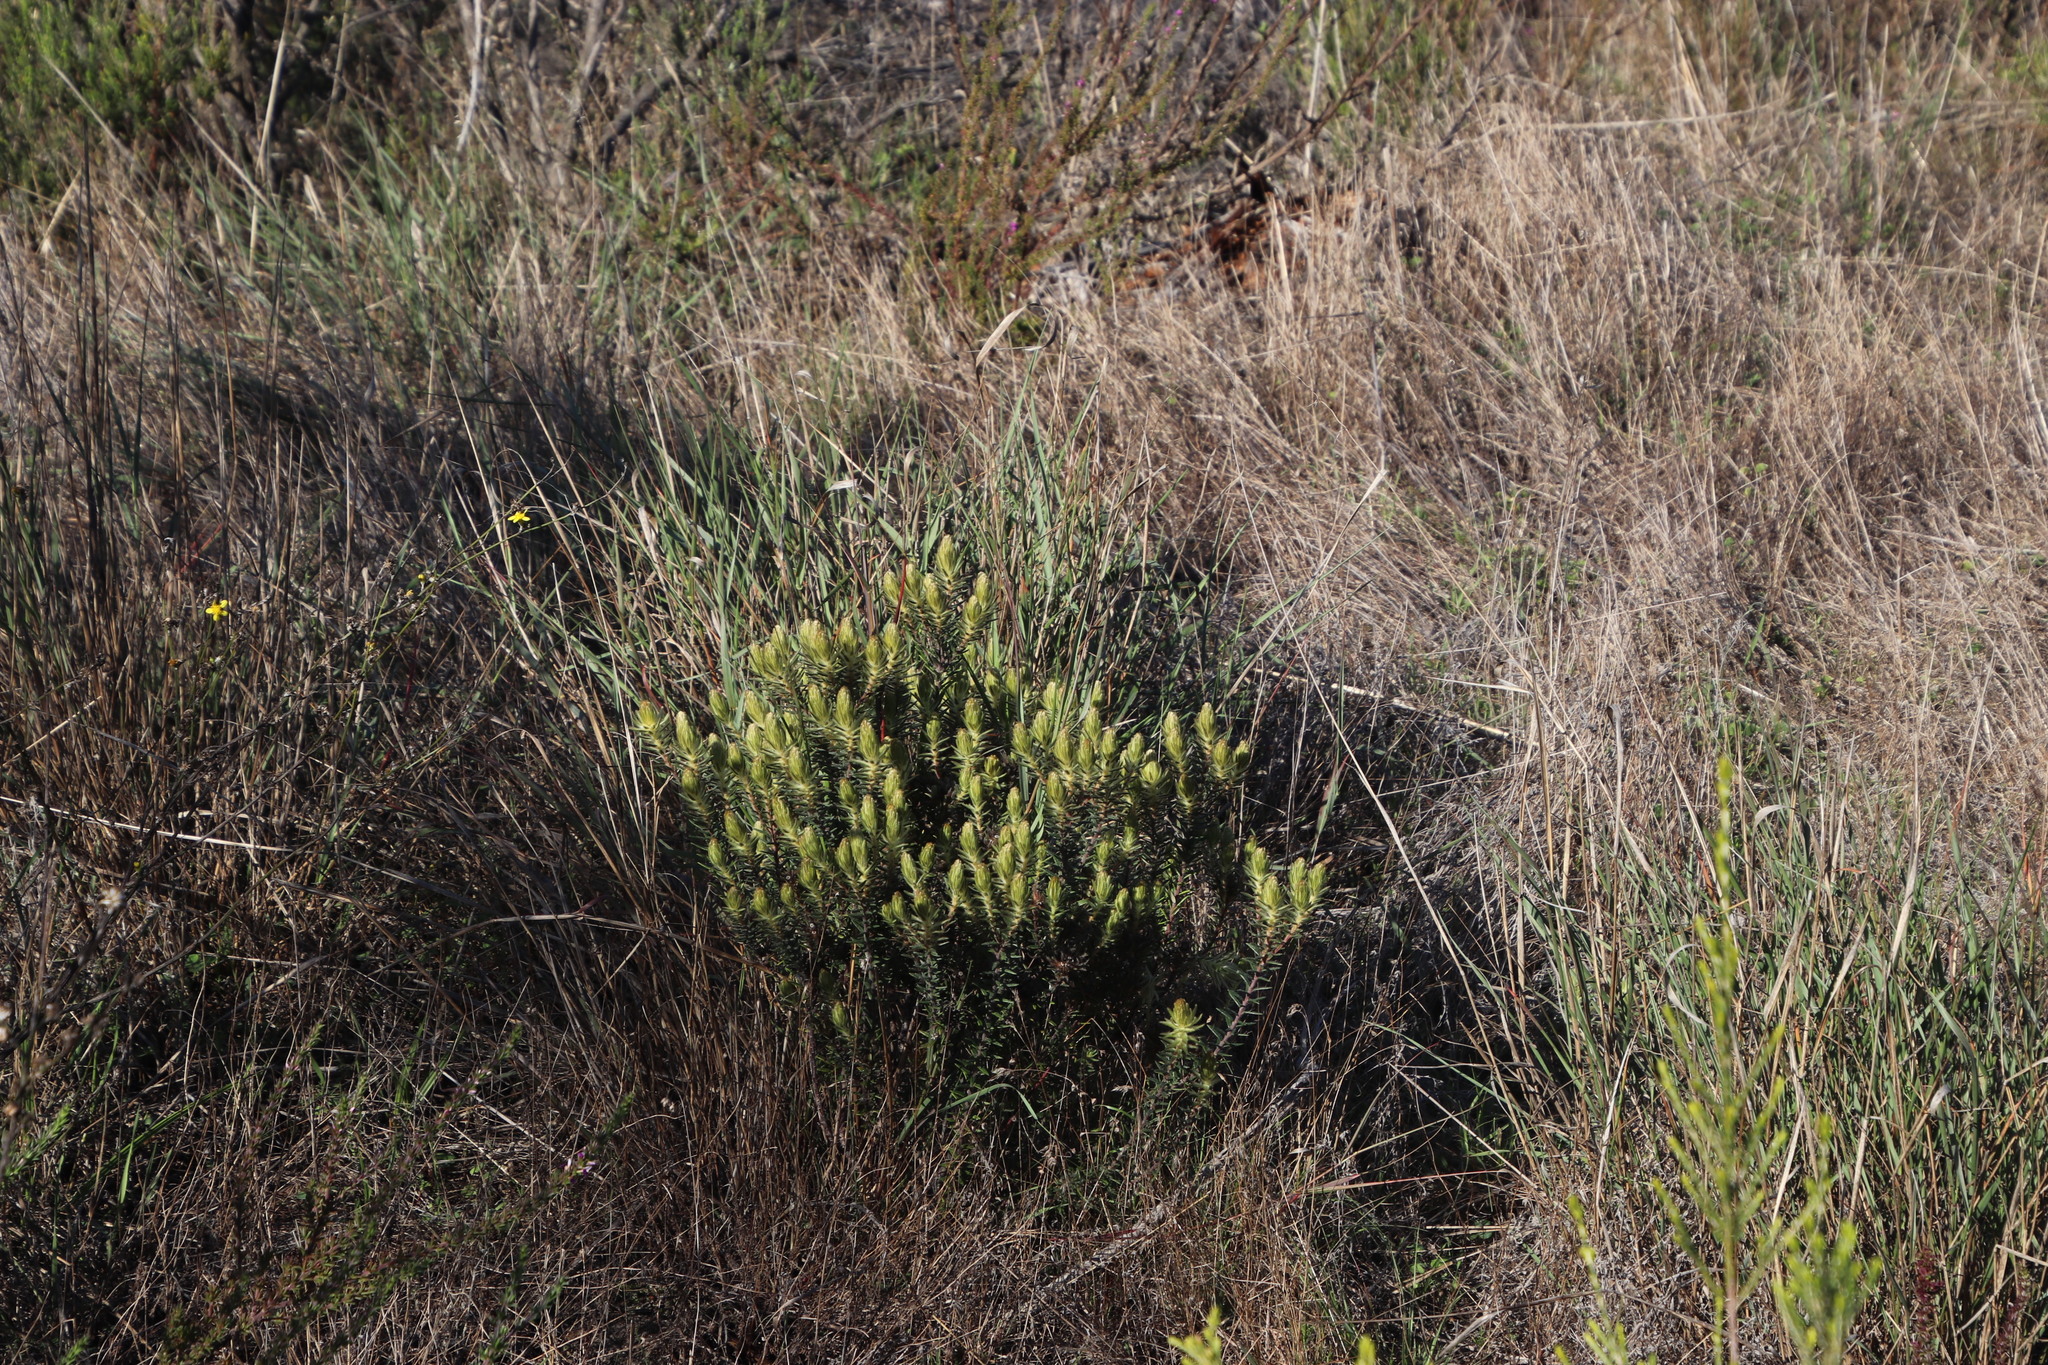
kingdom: Plantae
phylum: Tracheophyta
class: Magnoliopsida
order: Rosales
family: Rhamnaceae
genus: Phylica
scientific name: Phylica pubescens
